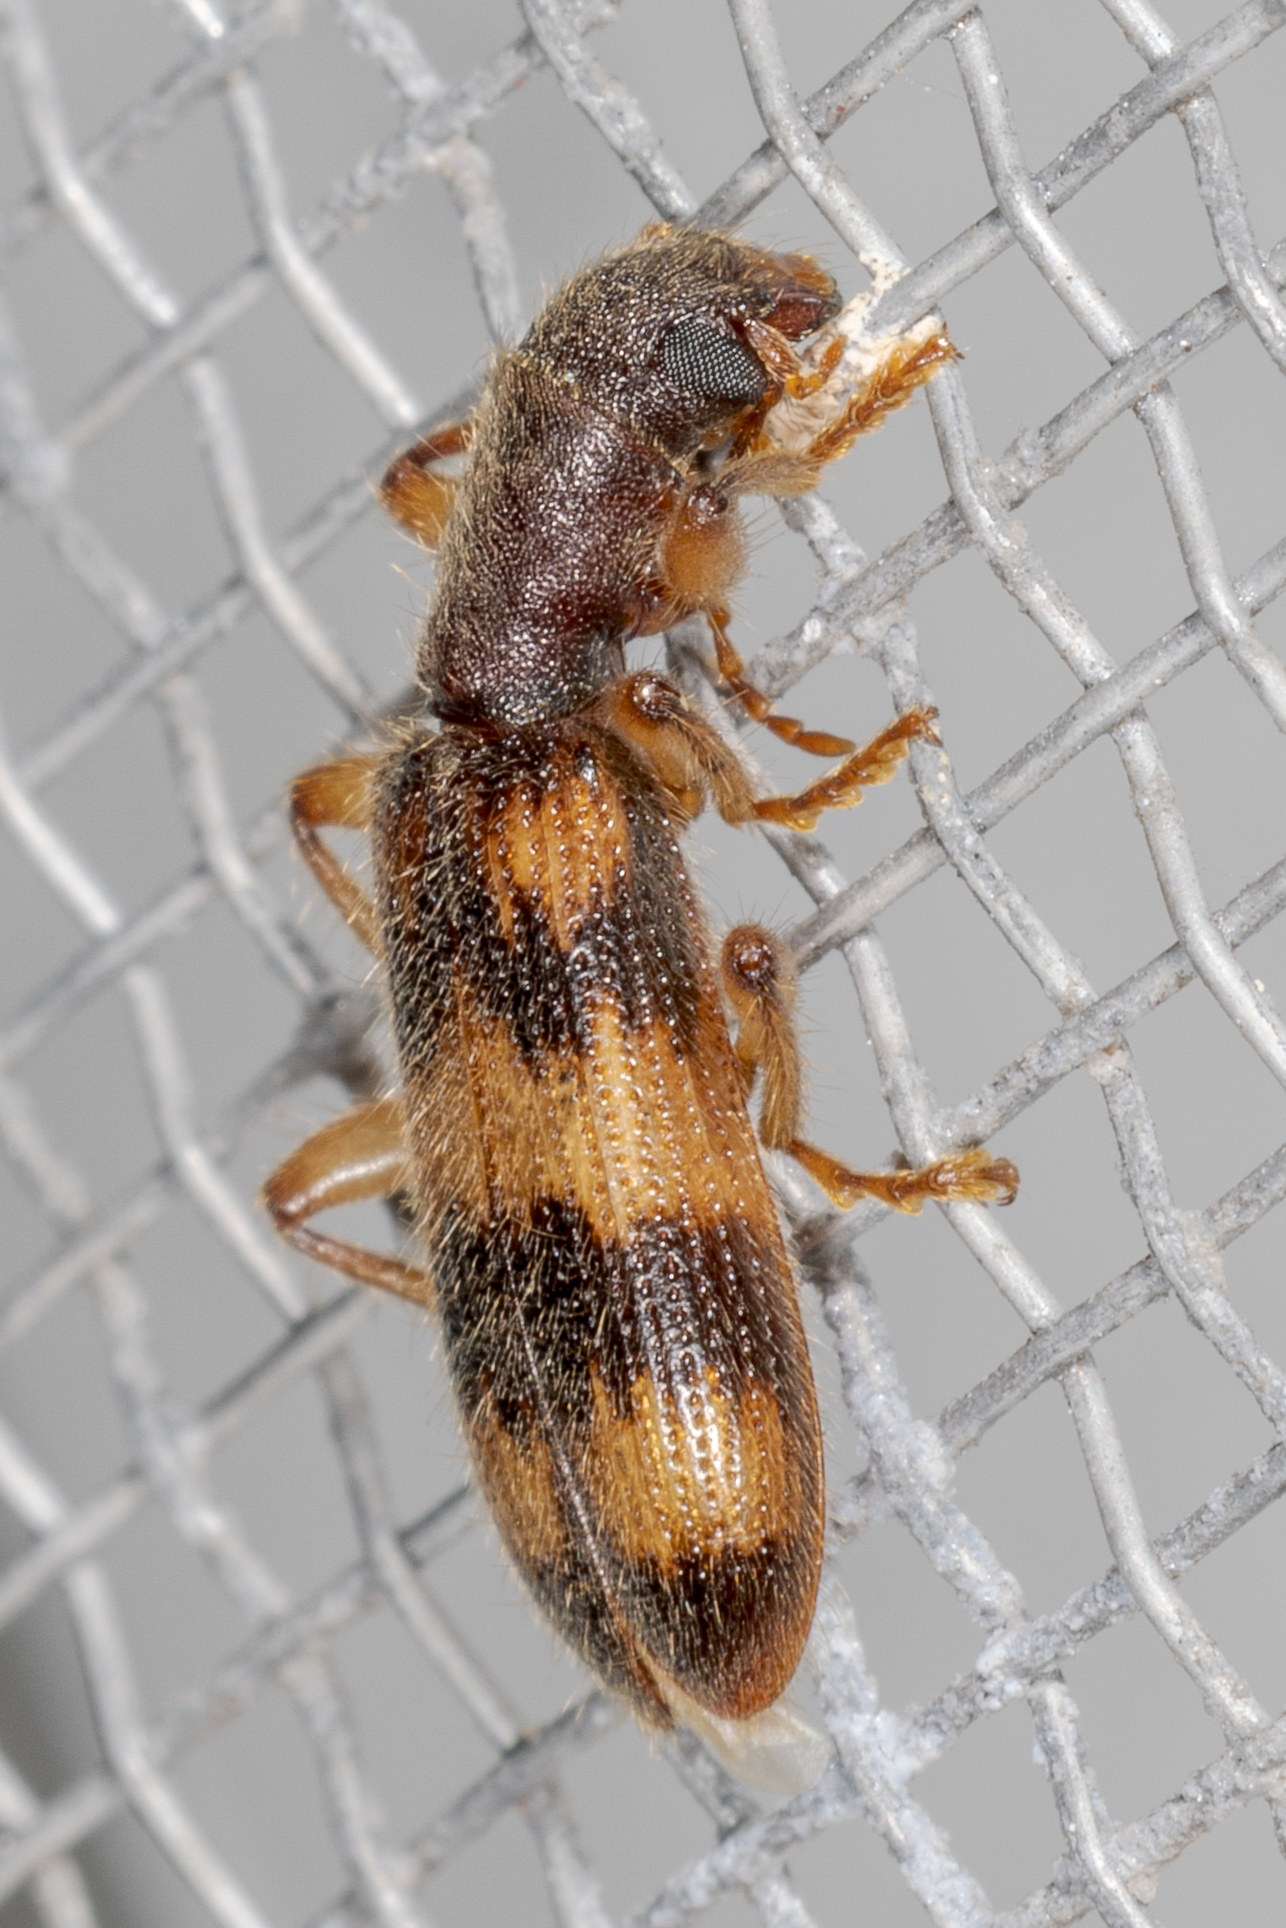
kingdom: Animalia
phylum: Arthropoda
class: Insecta
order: Coleoptera
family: Cleridae
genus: Cymatodera
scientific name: Cymatodera undulata
